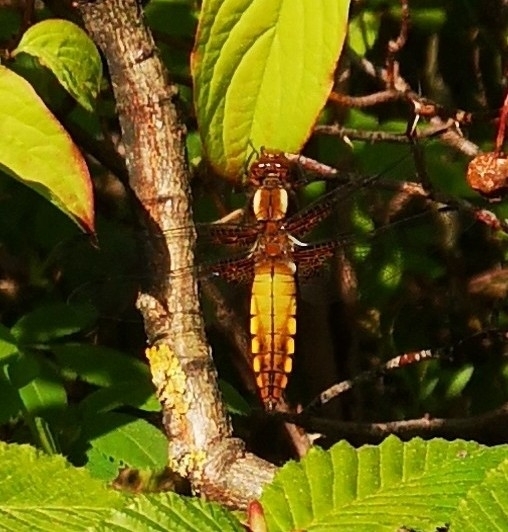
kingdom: Animalia
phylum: Arthropoda
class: Insecta
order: Odonata
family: Libellulidae
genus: Libellula
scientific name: Libellula depressa
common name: Broad-bodied chaser
